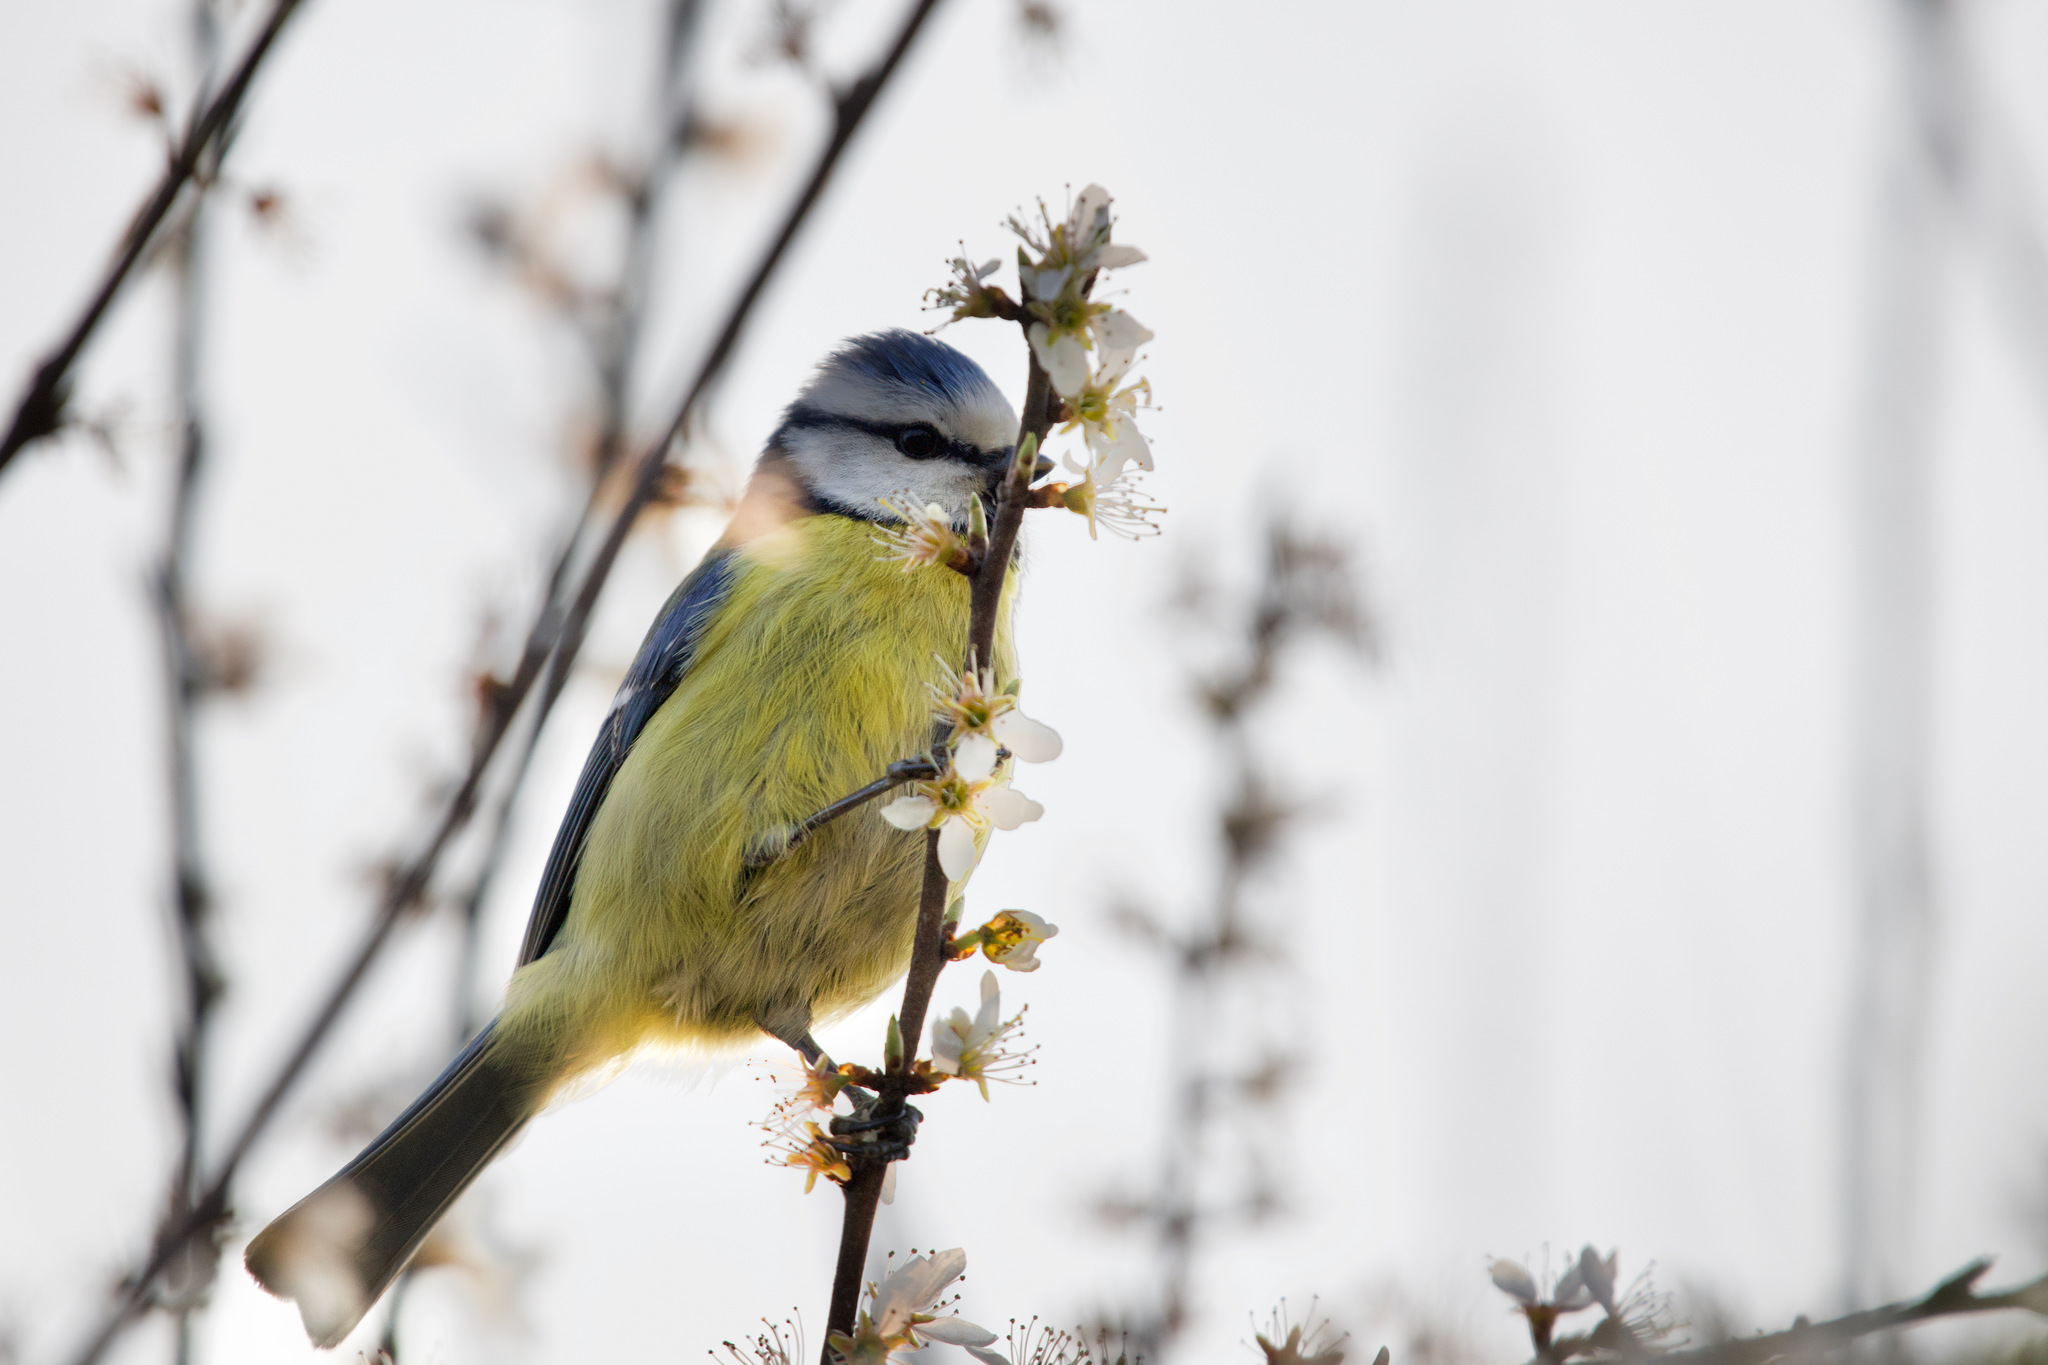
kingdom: Animalia
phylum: Chordata
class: Aves
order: Passeriformes
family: Paridae
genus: Cyanistes
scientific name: Cyanistes caeruleus
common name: Eurasian blue tit
